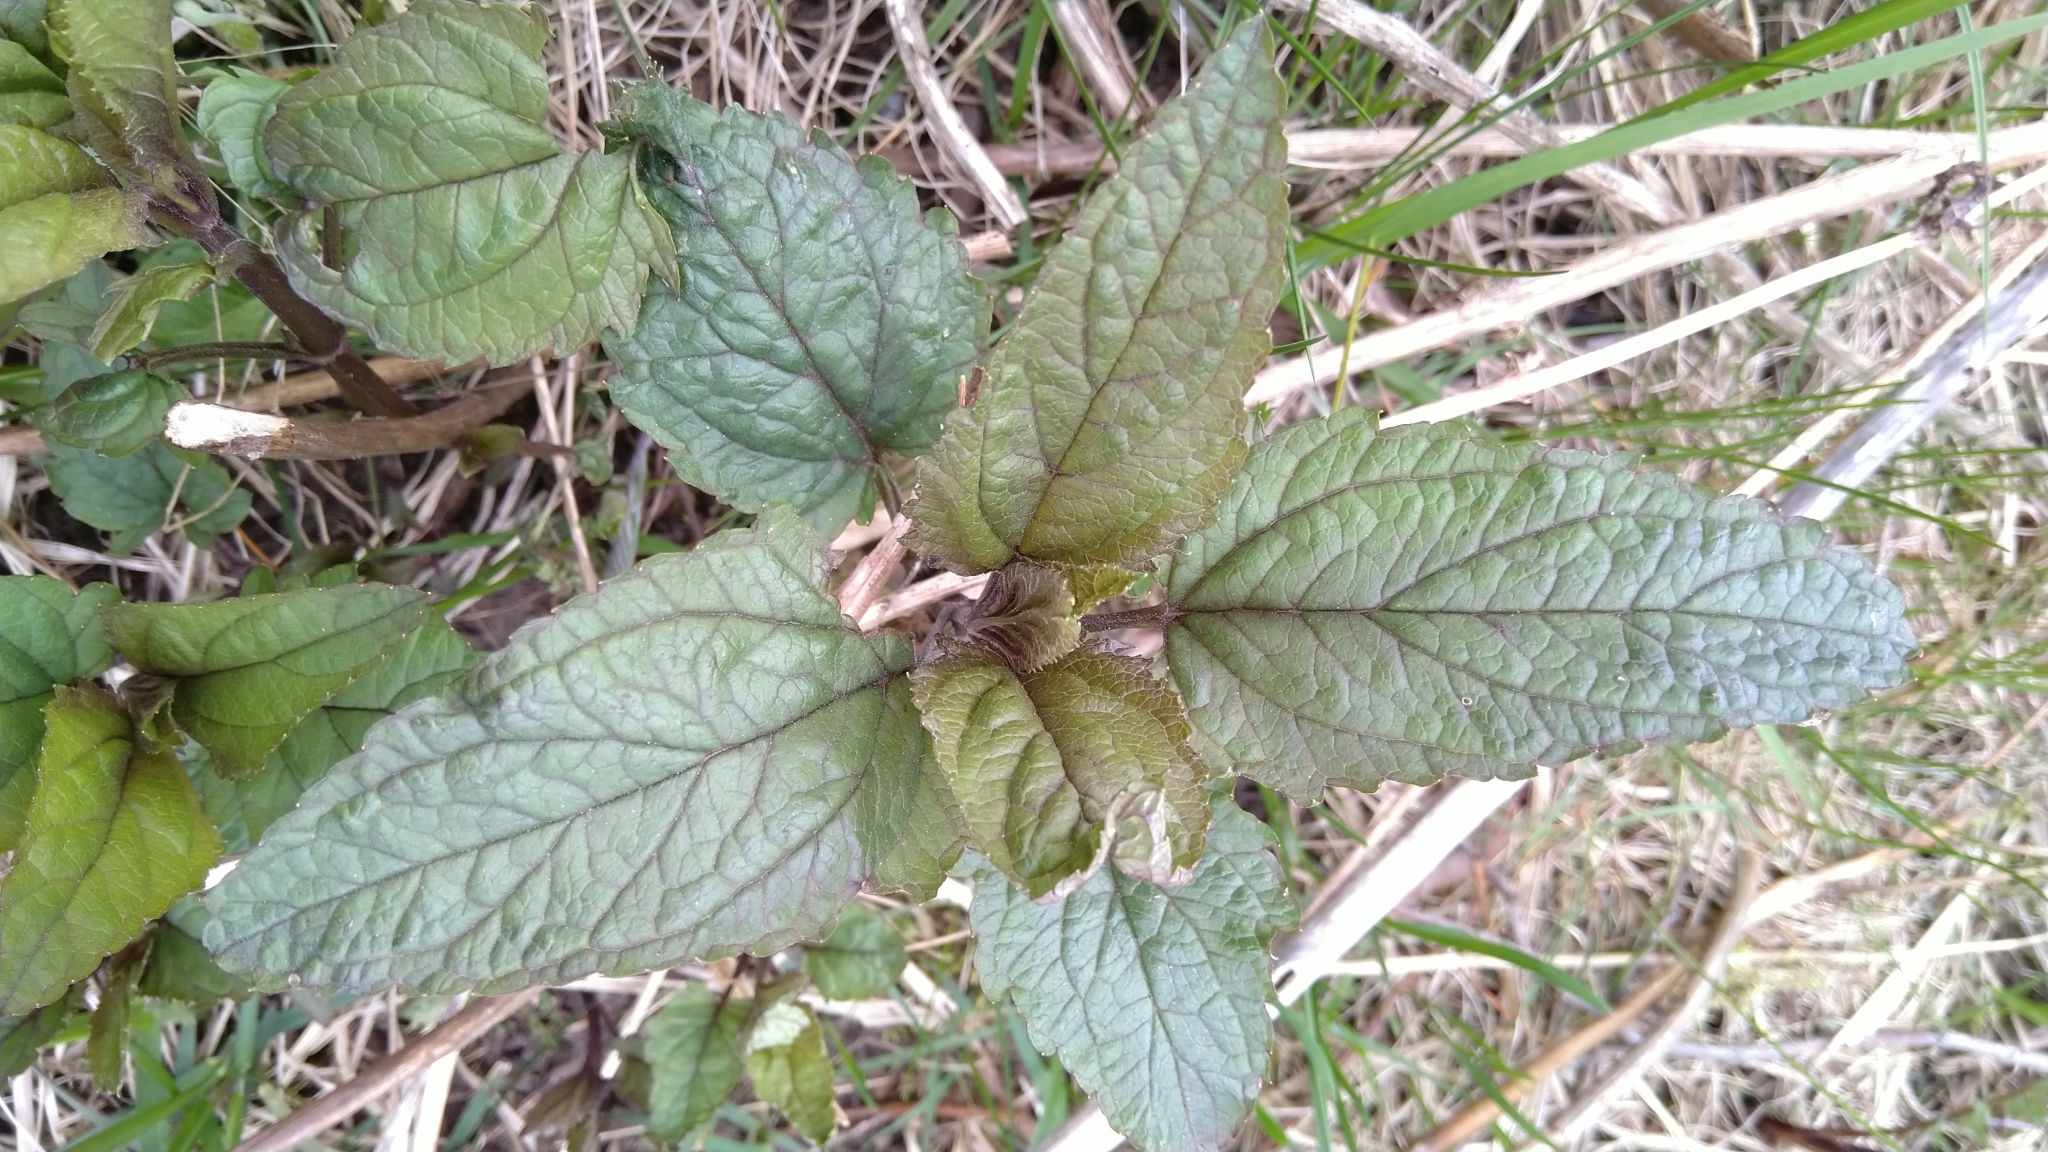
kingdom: Plantae
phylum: Tracheophyta
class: Magnoliopsida
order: Lamiales
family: Scrophulariaceae
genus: Scrophularia
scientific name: Scrophularia nodosa
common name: Common figwort
